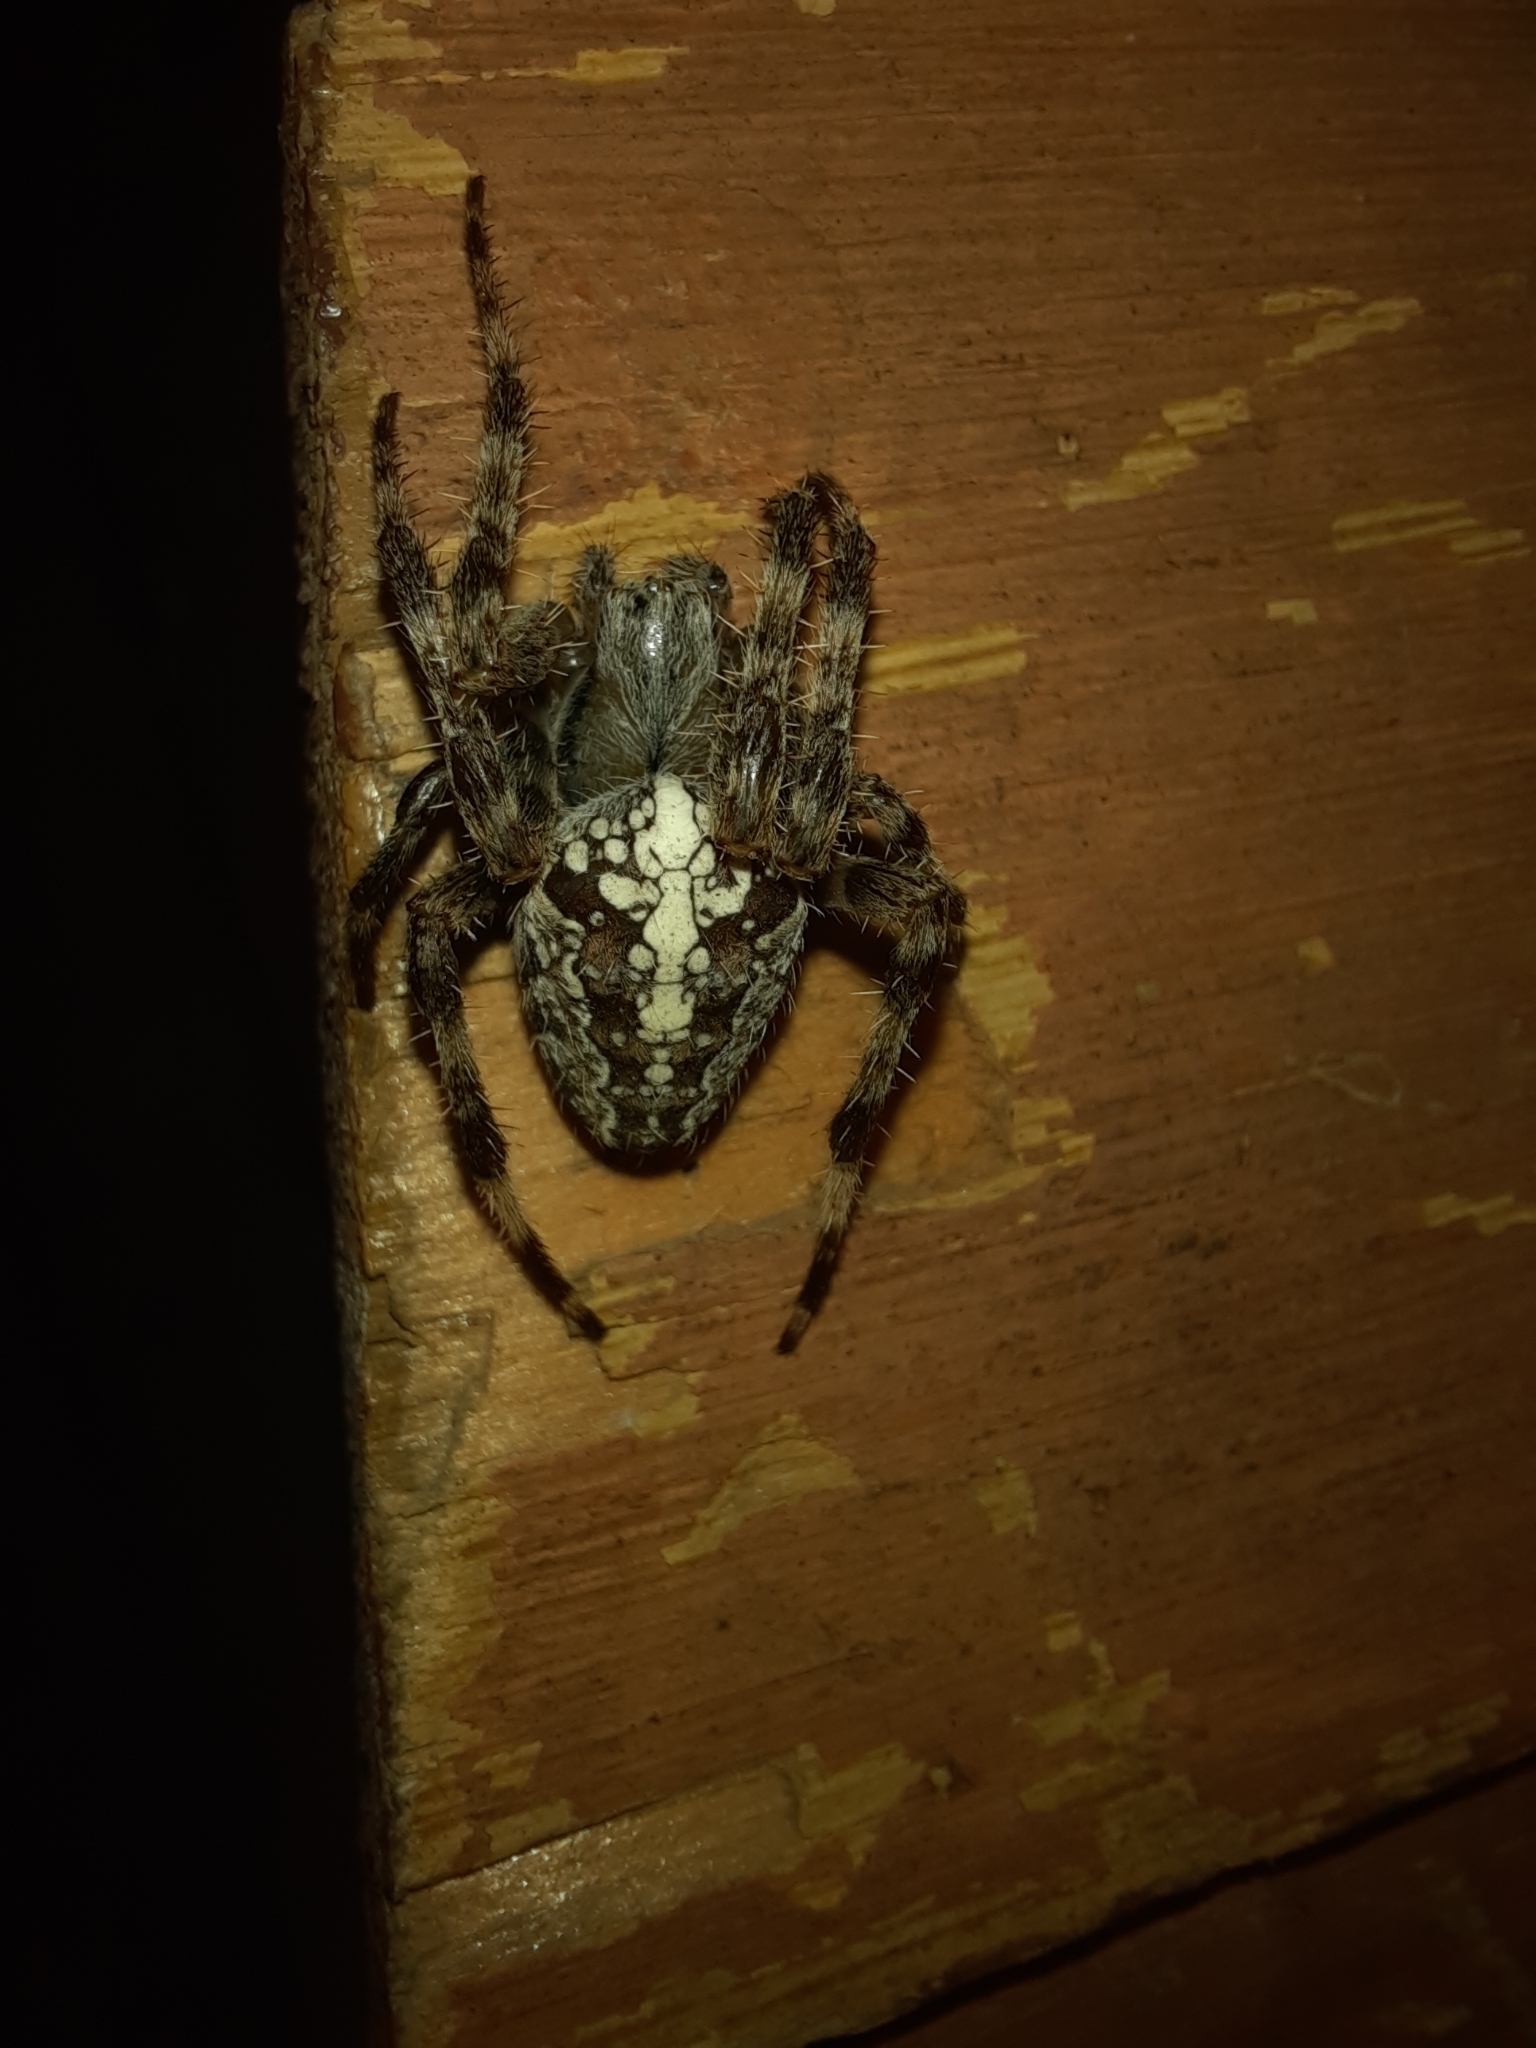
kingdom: Animalia
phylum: Arthropoda
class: Arachnida
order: Araneae
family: Araneidae
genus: Araneus
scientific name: Araneus diadematus
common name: Cross orbweaver
